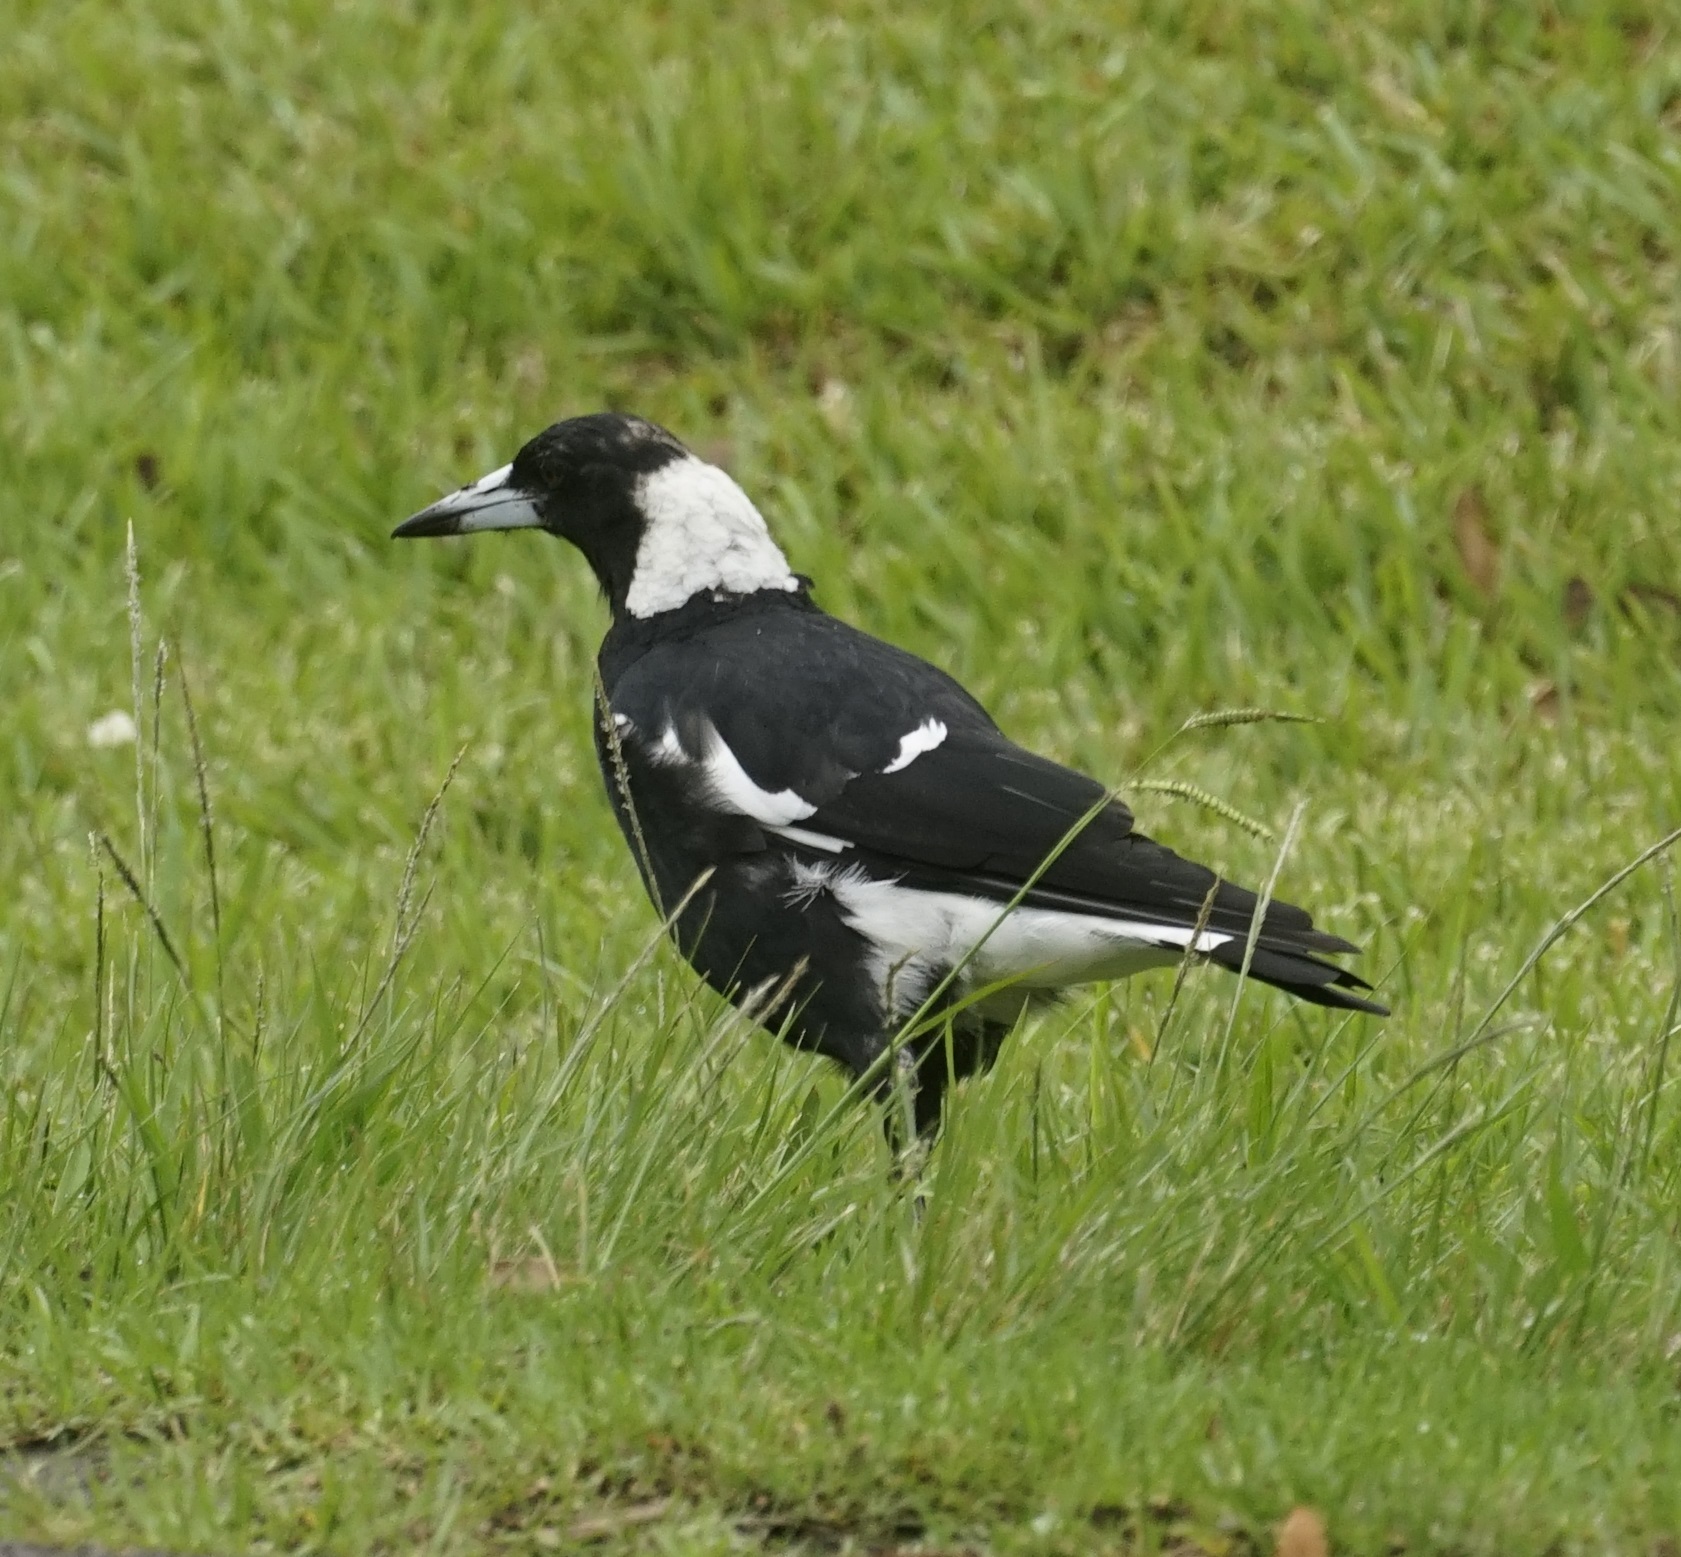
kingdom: Animalia
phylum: Chordata
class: Aves
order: Passeriformes
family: Cracticidae
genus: Gymnorhina
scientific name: Gymnorhina tibicen
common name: Australian magpie
